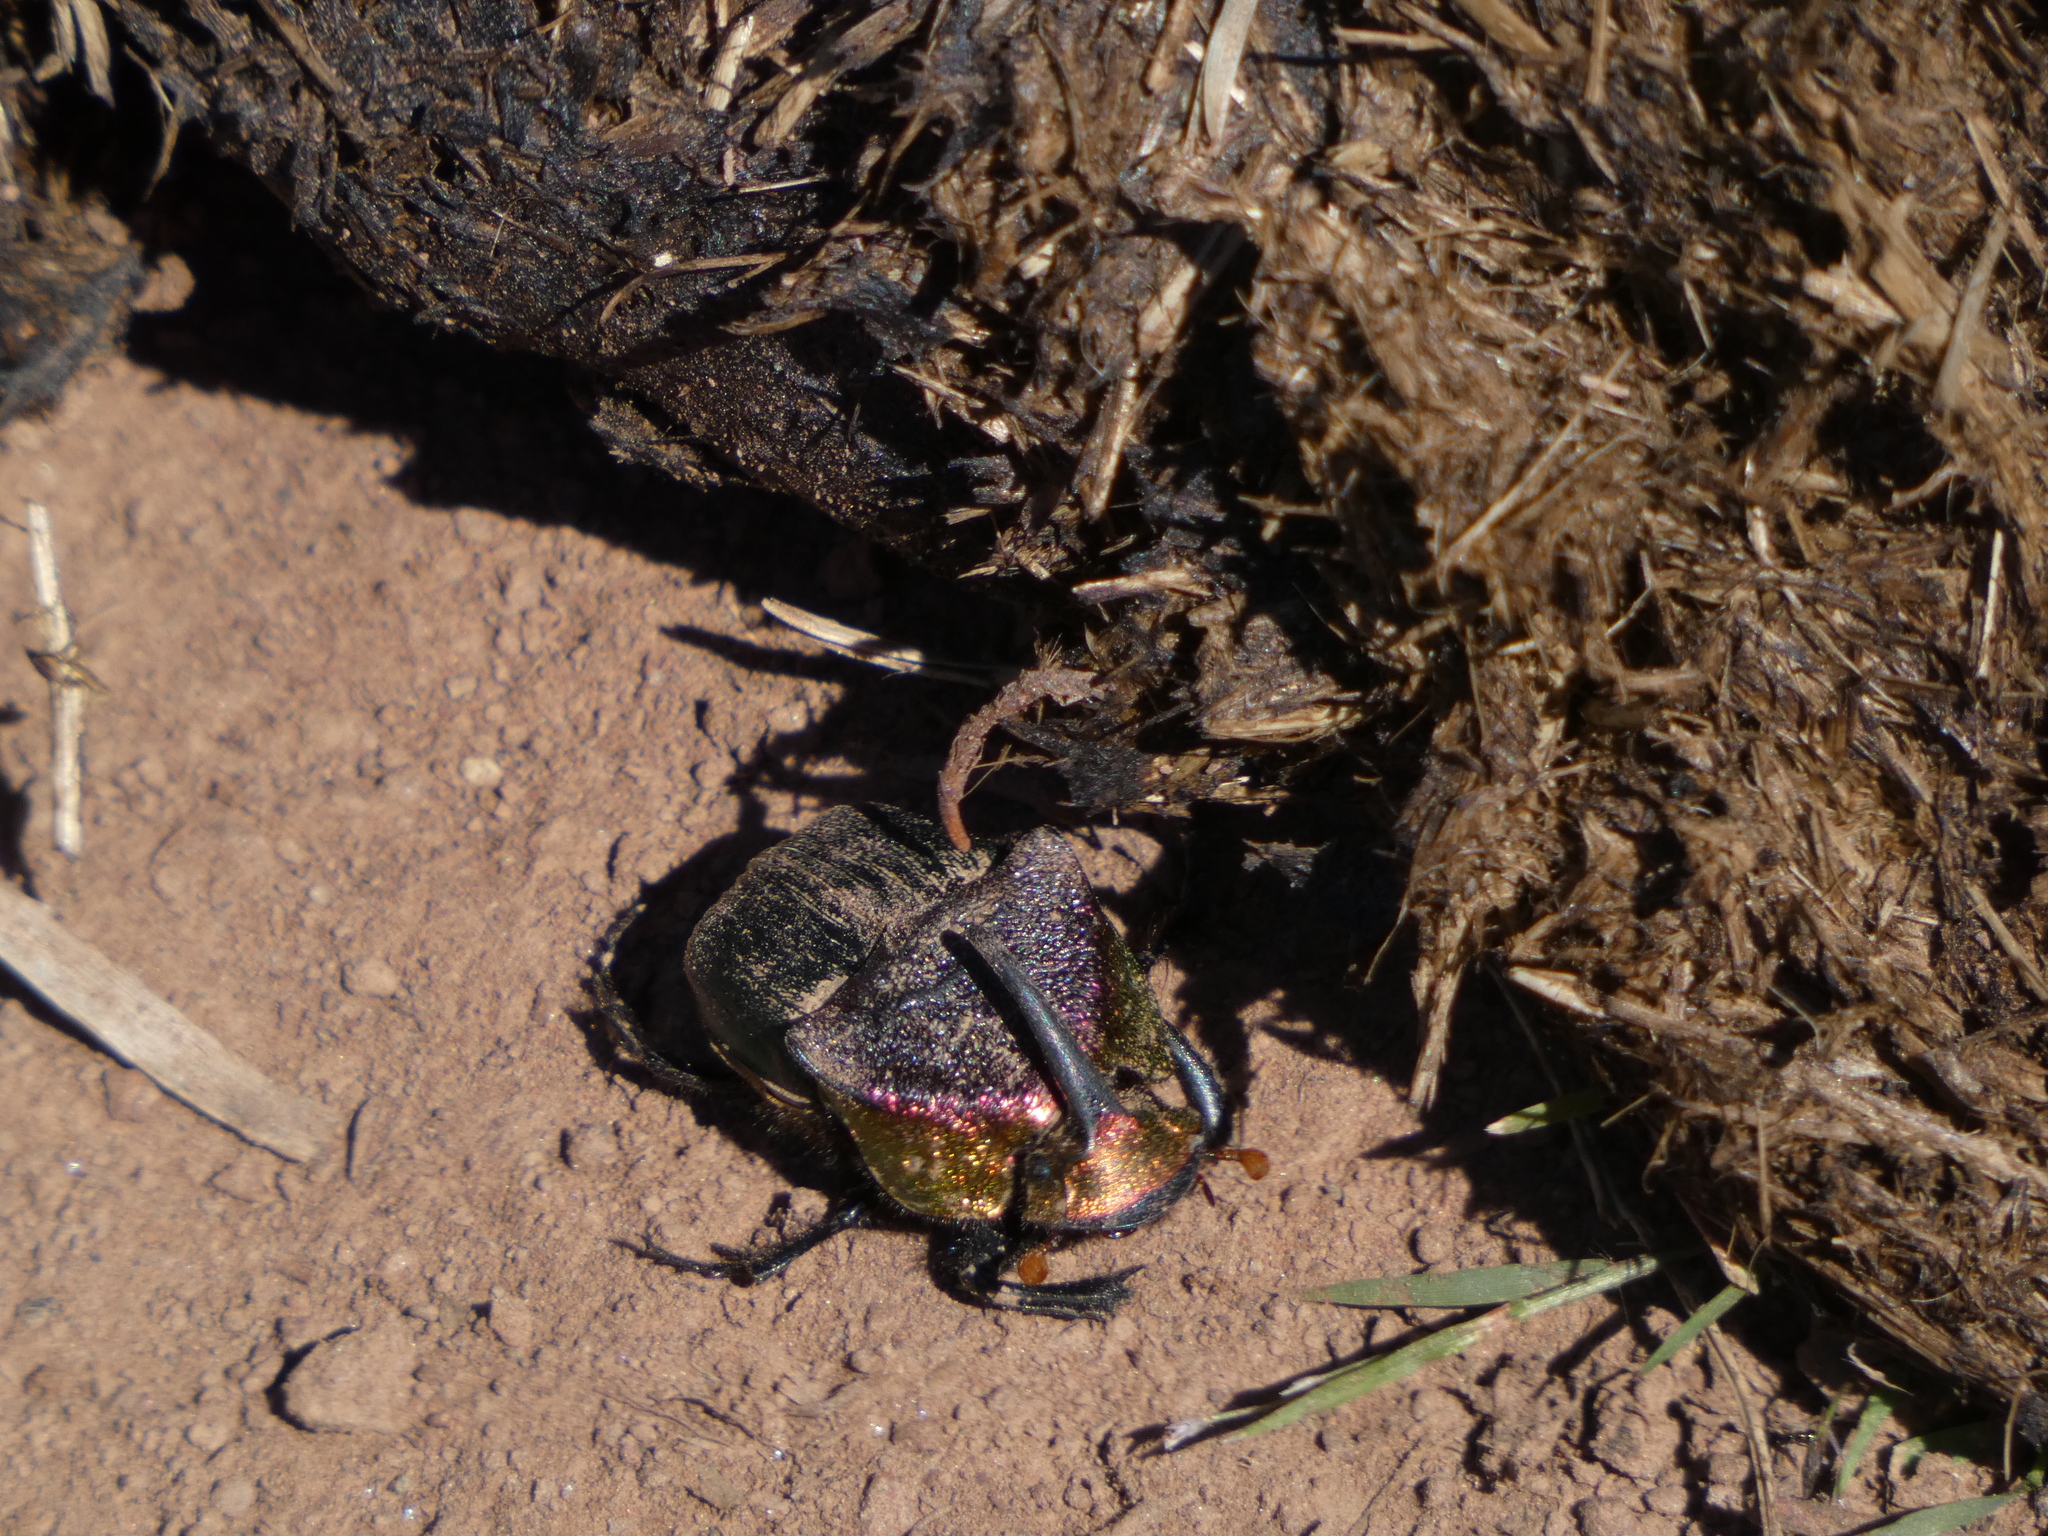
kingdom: Animalia
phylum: Arthropoda
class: Insecta
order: Coleoptera
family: Scarabaeidae
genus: Phanaeus
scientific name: Phanaeus vindex
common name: Rainbow scarab
